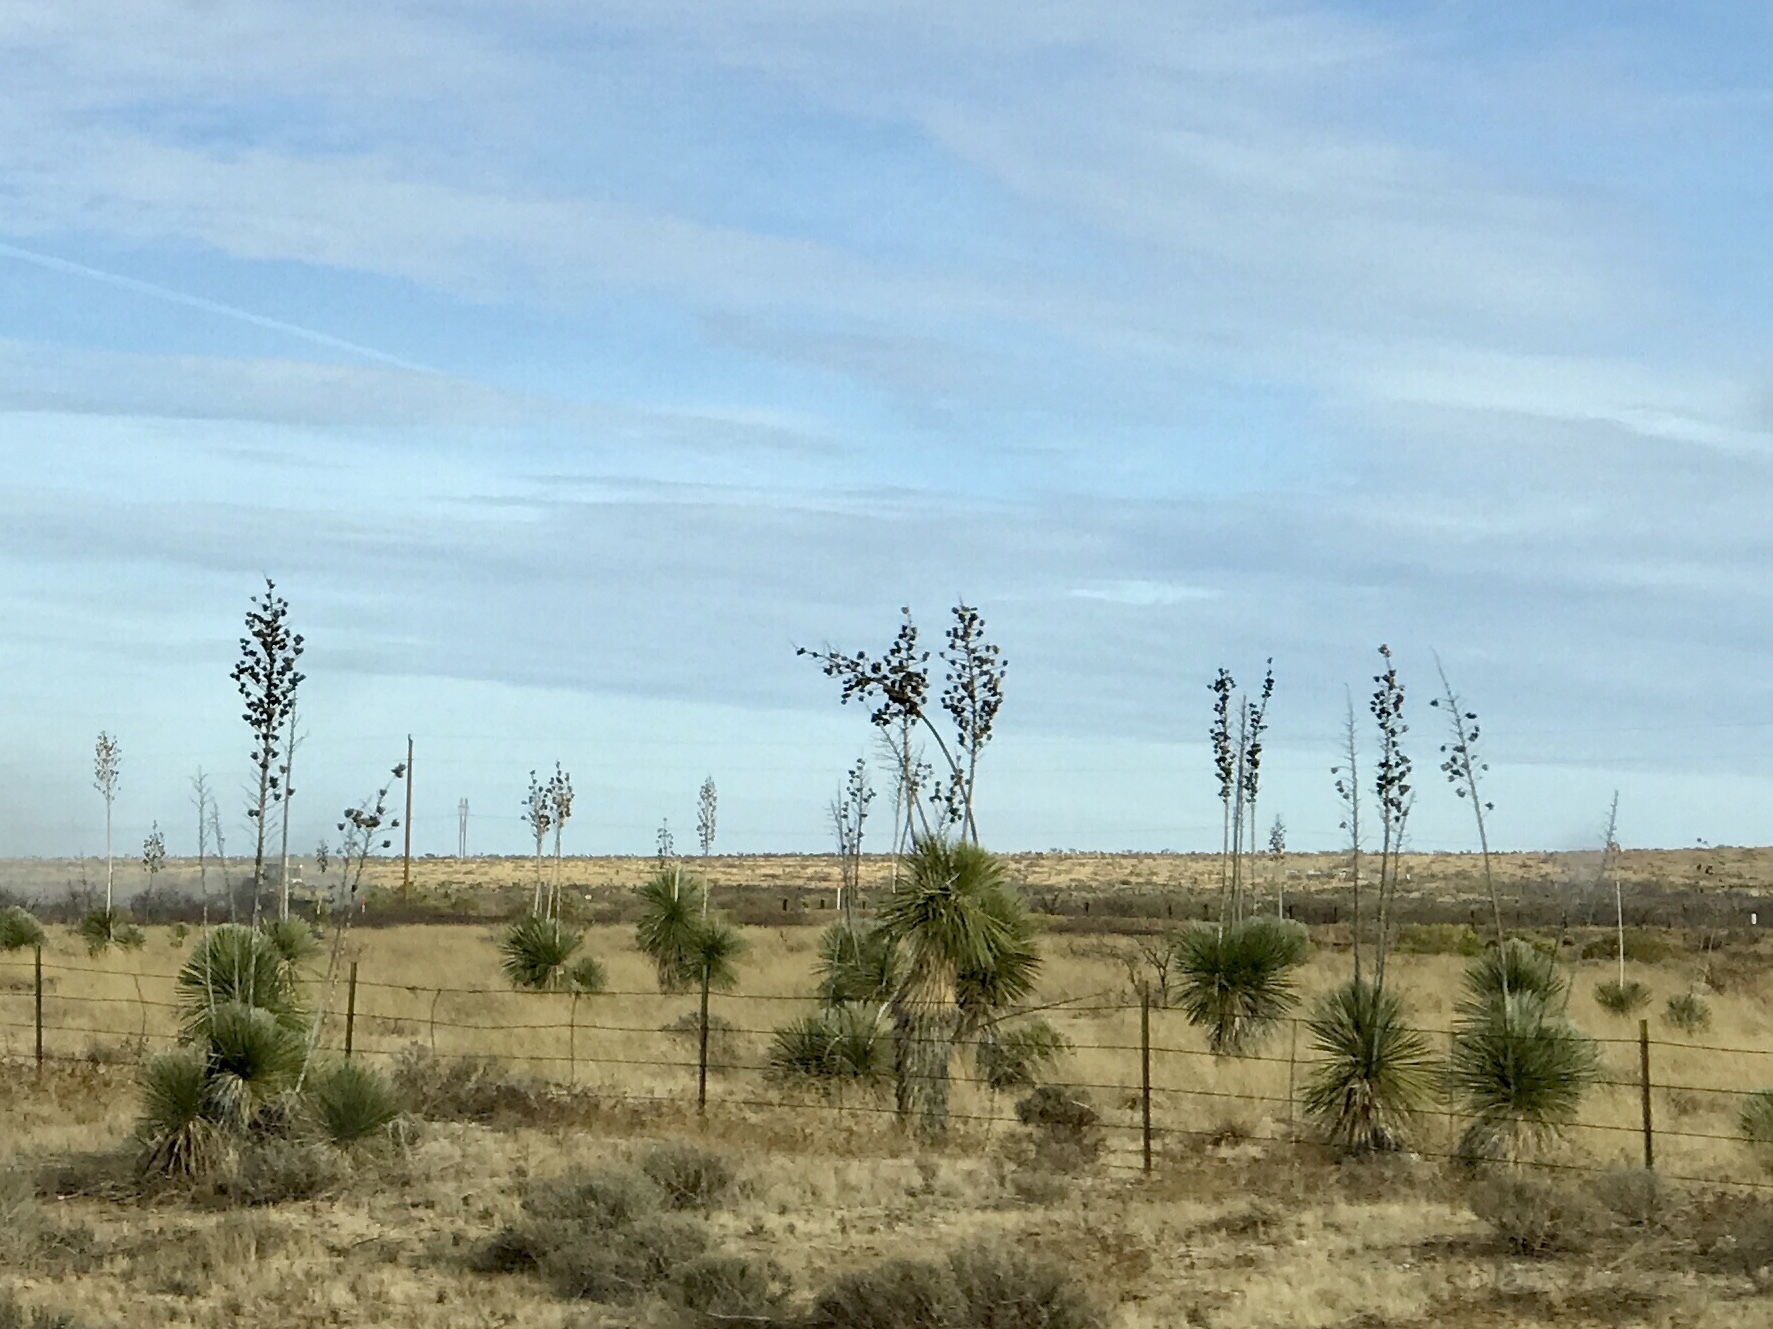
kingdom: Plantae
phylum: Tracheophyta
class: Liliopsida
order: Asparagales
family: Asparagaceae
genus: Yucca
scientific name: Yucca elata
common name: Palmella
